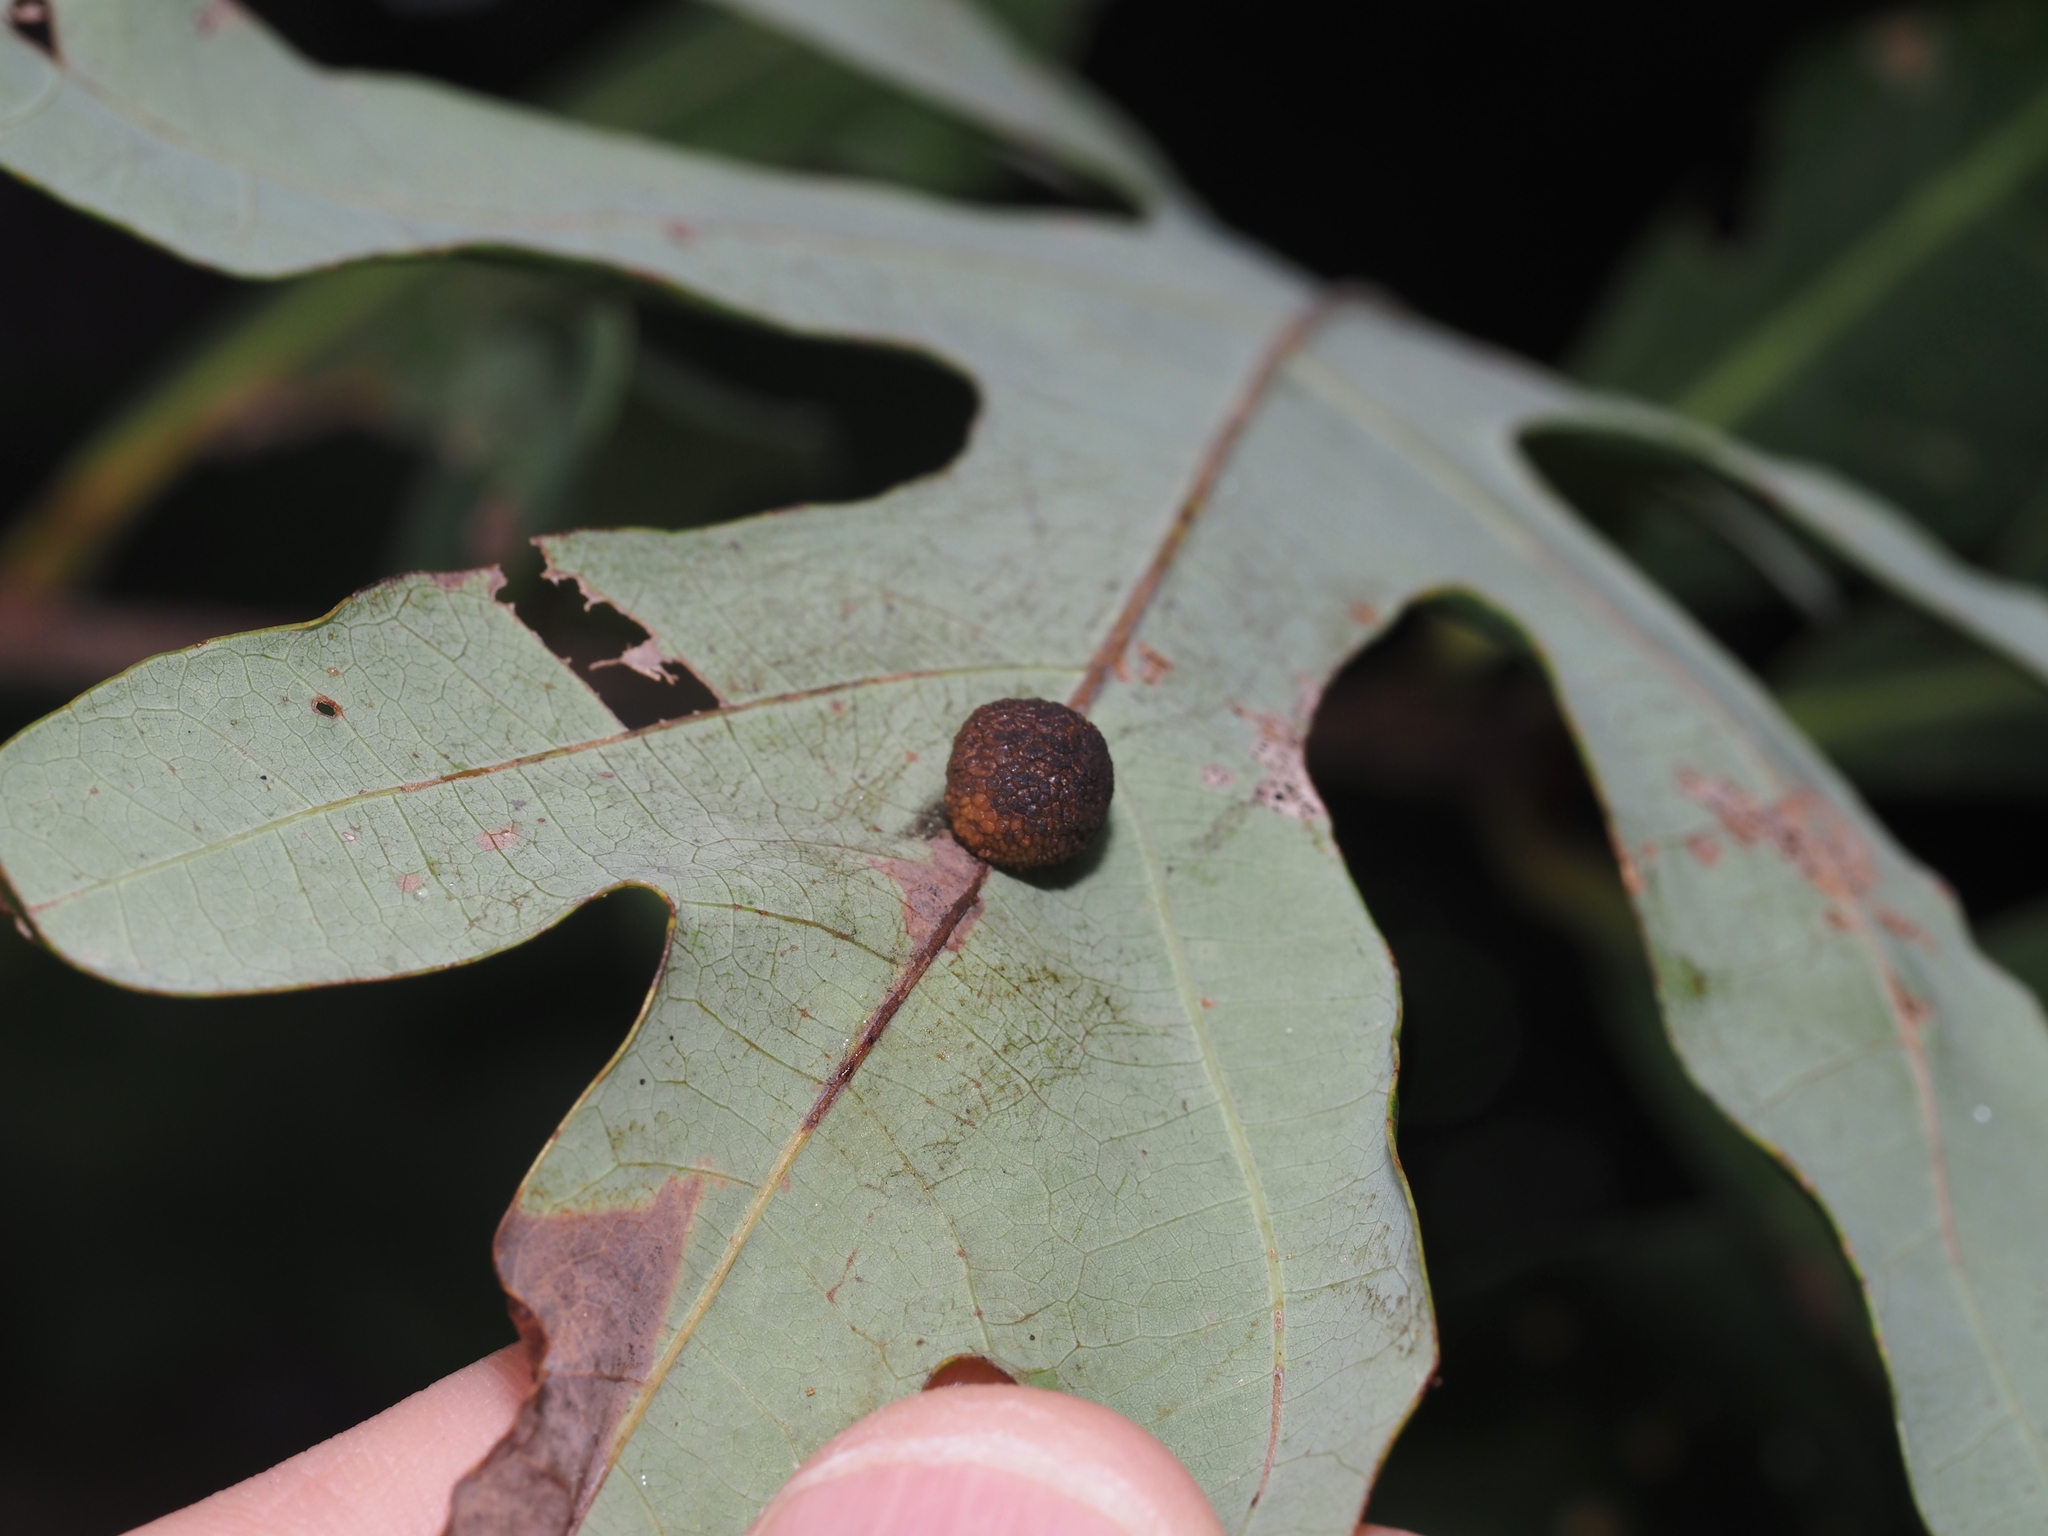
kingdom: Animalia
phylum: Arthropoda
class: Insecta
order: Hymenoptera
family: Cynipidae
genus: Acraspis
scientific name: Acraspis
